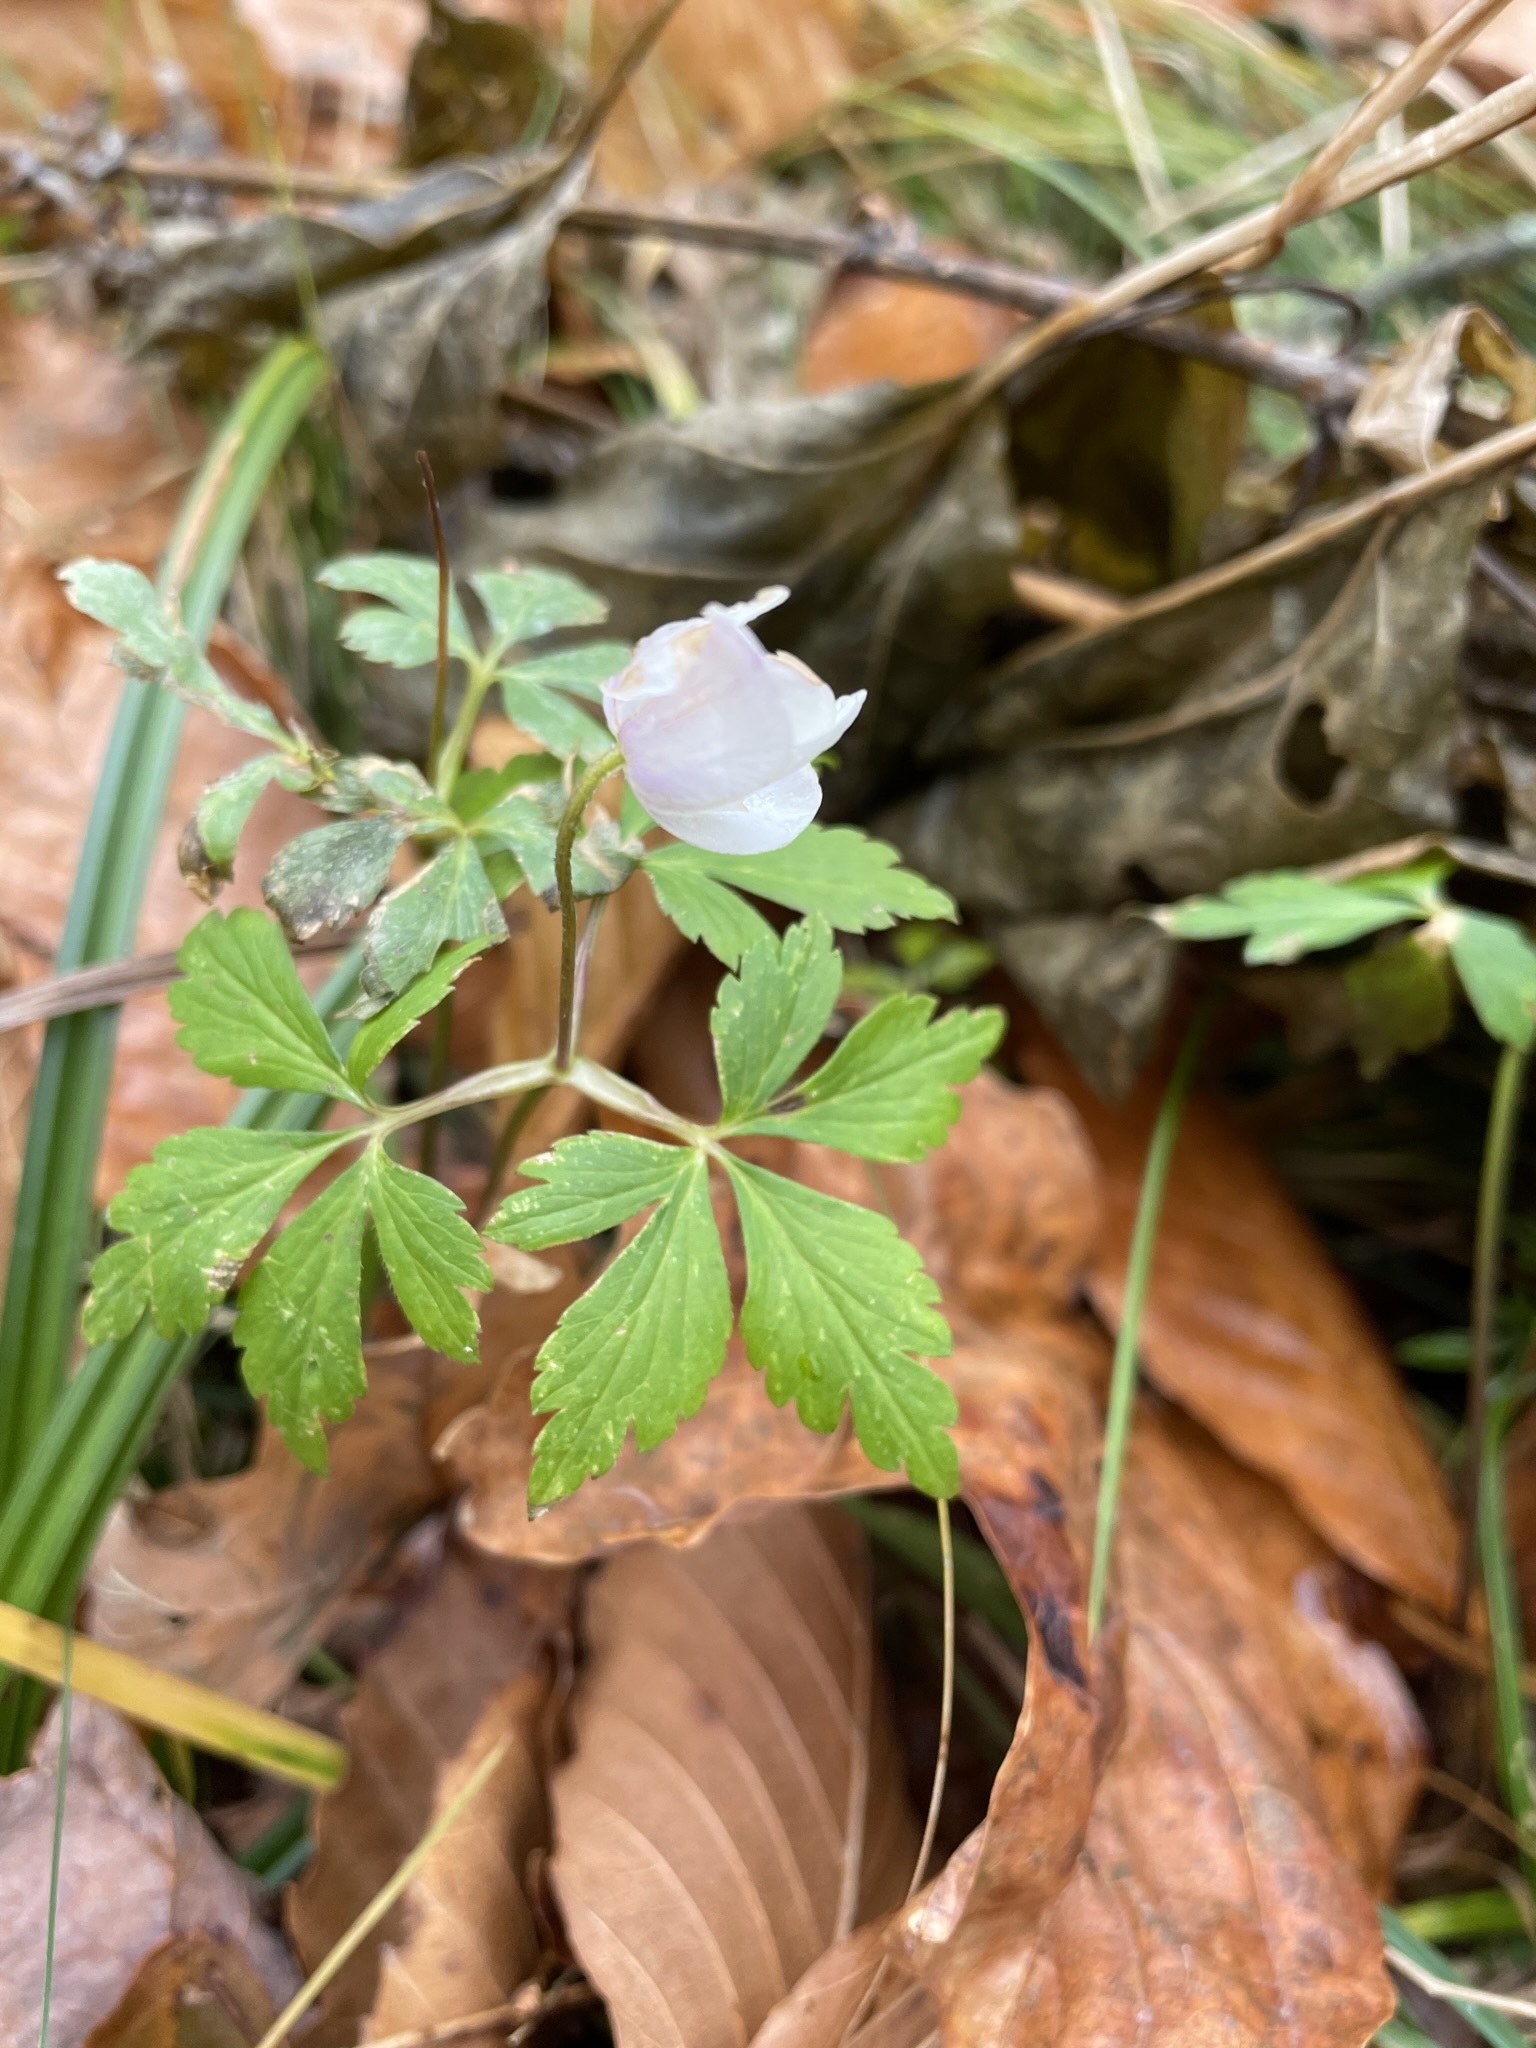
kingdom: Plantae
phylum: Tracheophyta
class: Magnoliopsida
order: Ranunculales
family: Ranunculaceae
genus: Anemone
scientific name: Anemone quinquefolia
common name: Wood anemone
